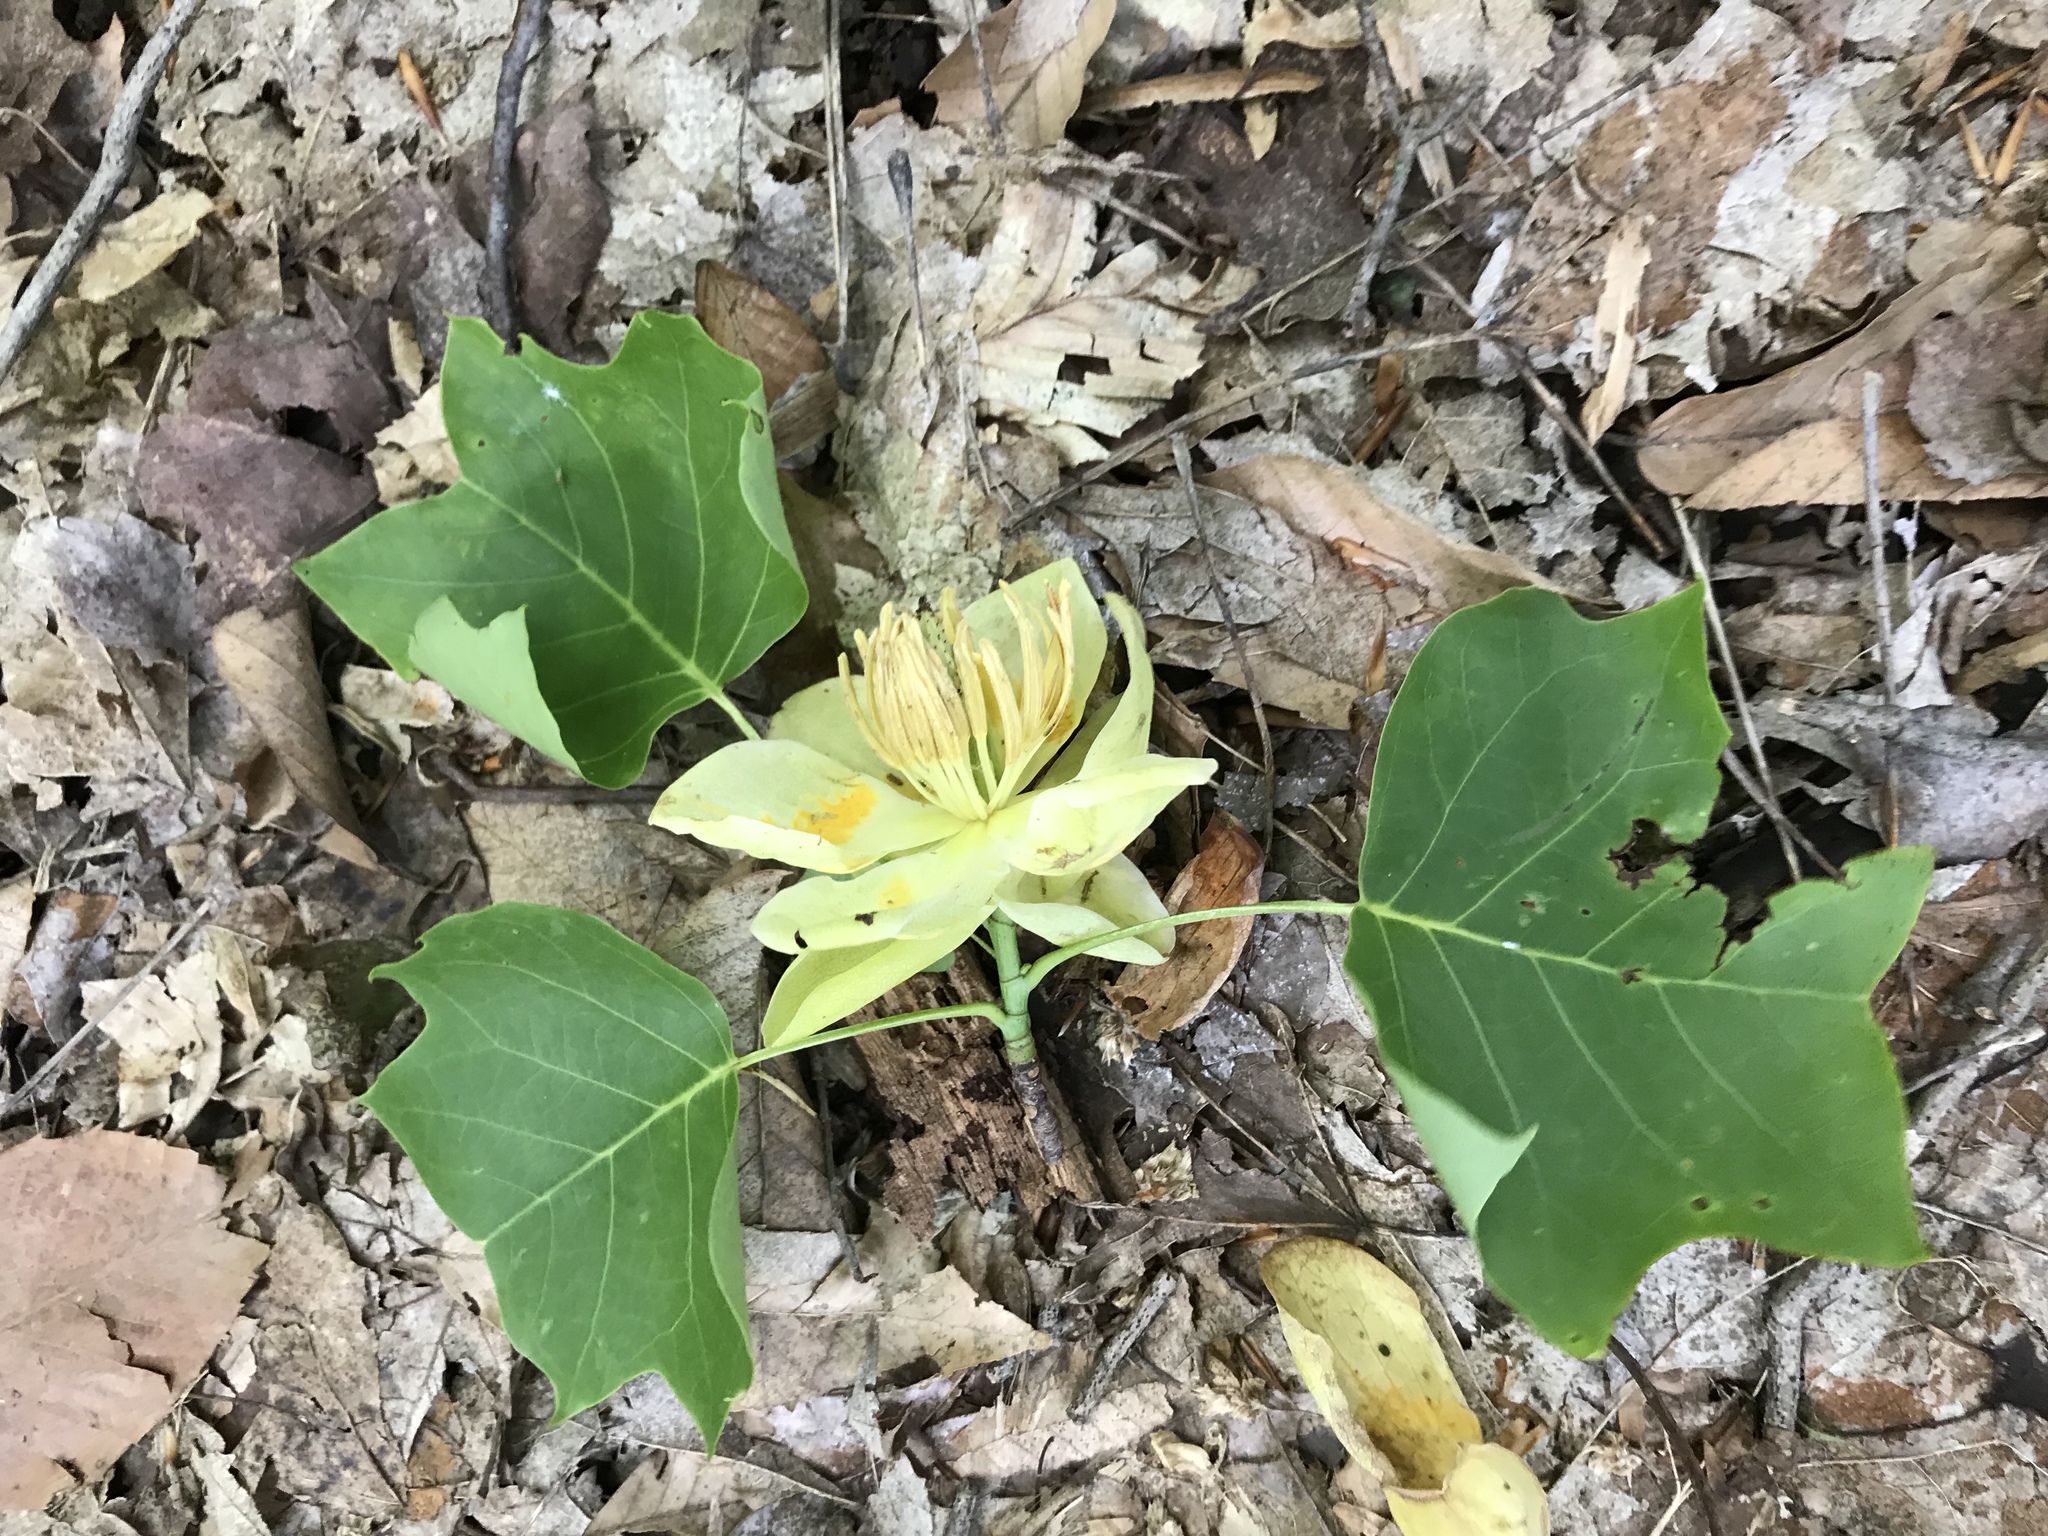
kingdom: Plantae
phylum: Tracheophyta
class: Magnoliopsida
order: Magnoliales
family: Magnoliaceae
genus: Liriodendron
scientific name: Liriodendron tulipifera
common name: Tulip tree
